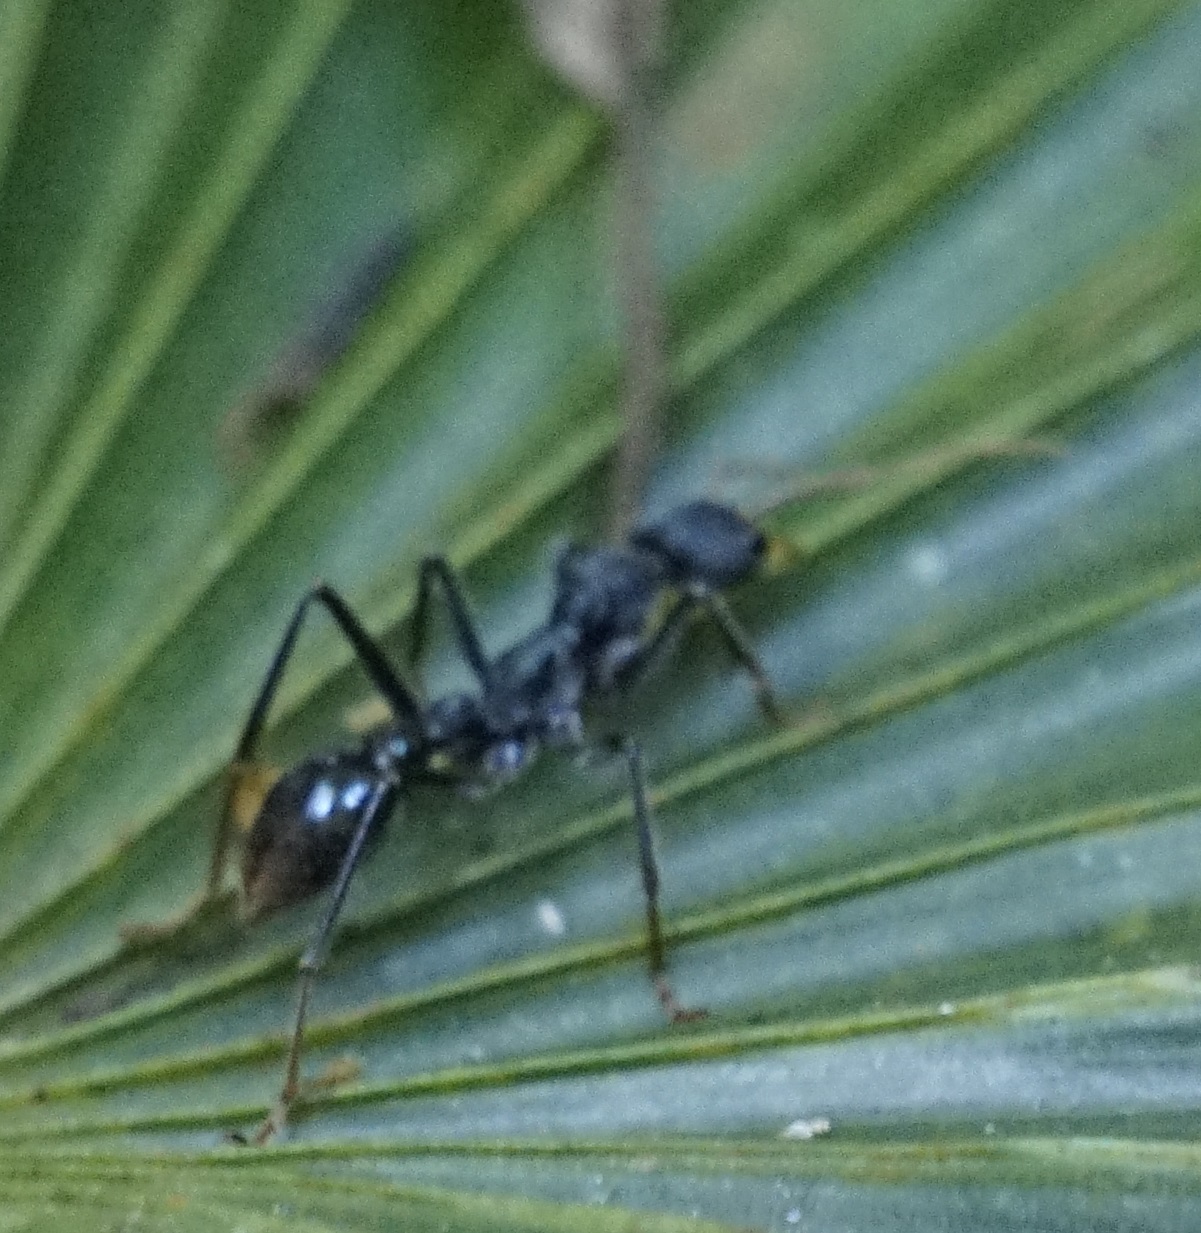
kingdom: Animalia
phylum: Arthropoda
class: Insecta
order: Hymenoptera
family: Formicidae
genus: Myrmecia
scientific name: Myrmecia tarsata
